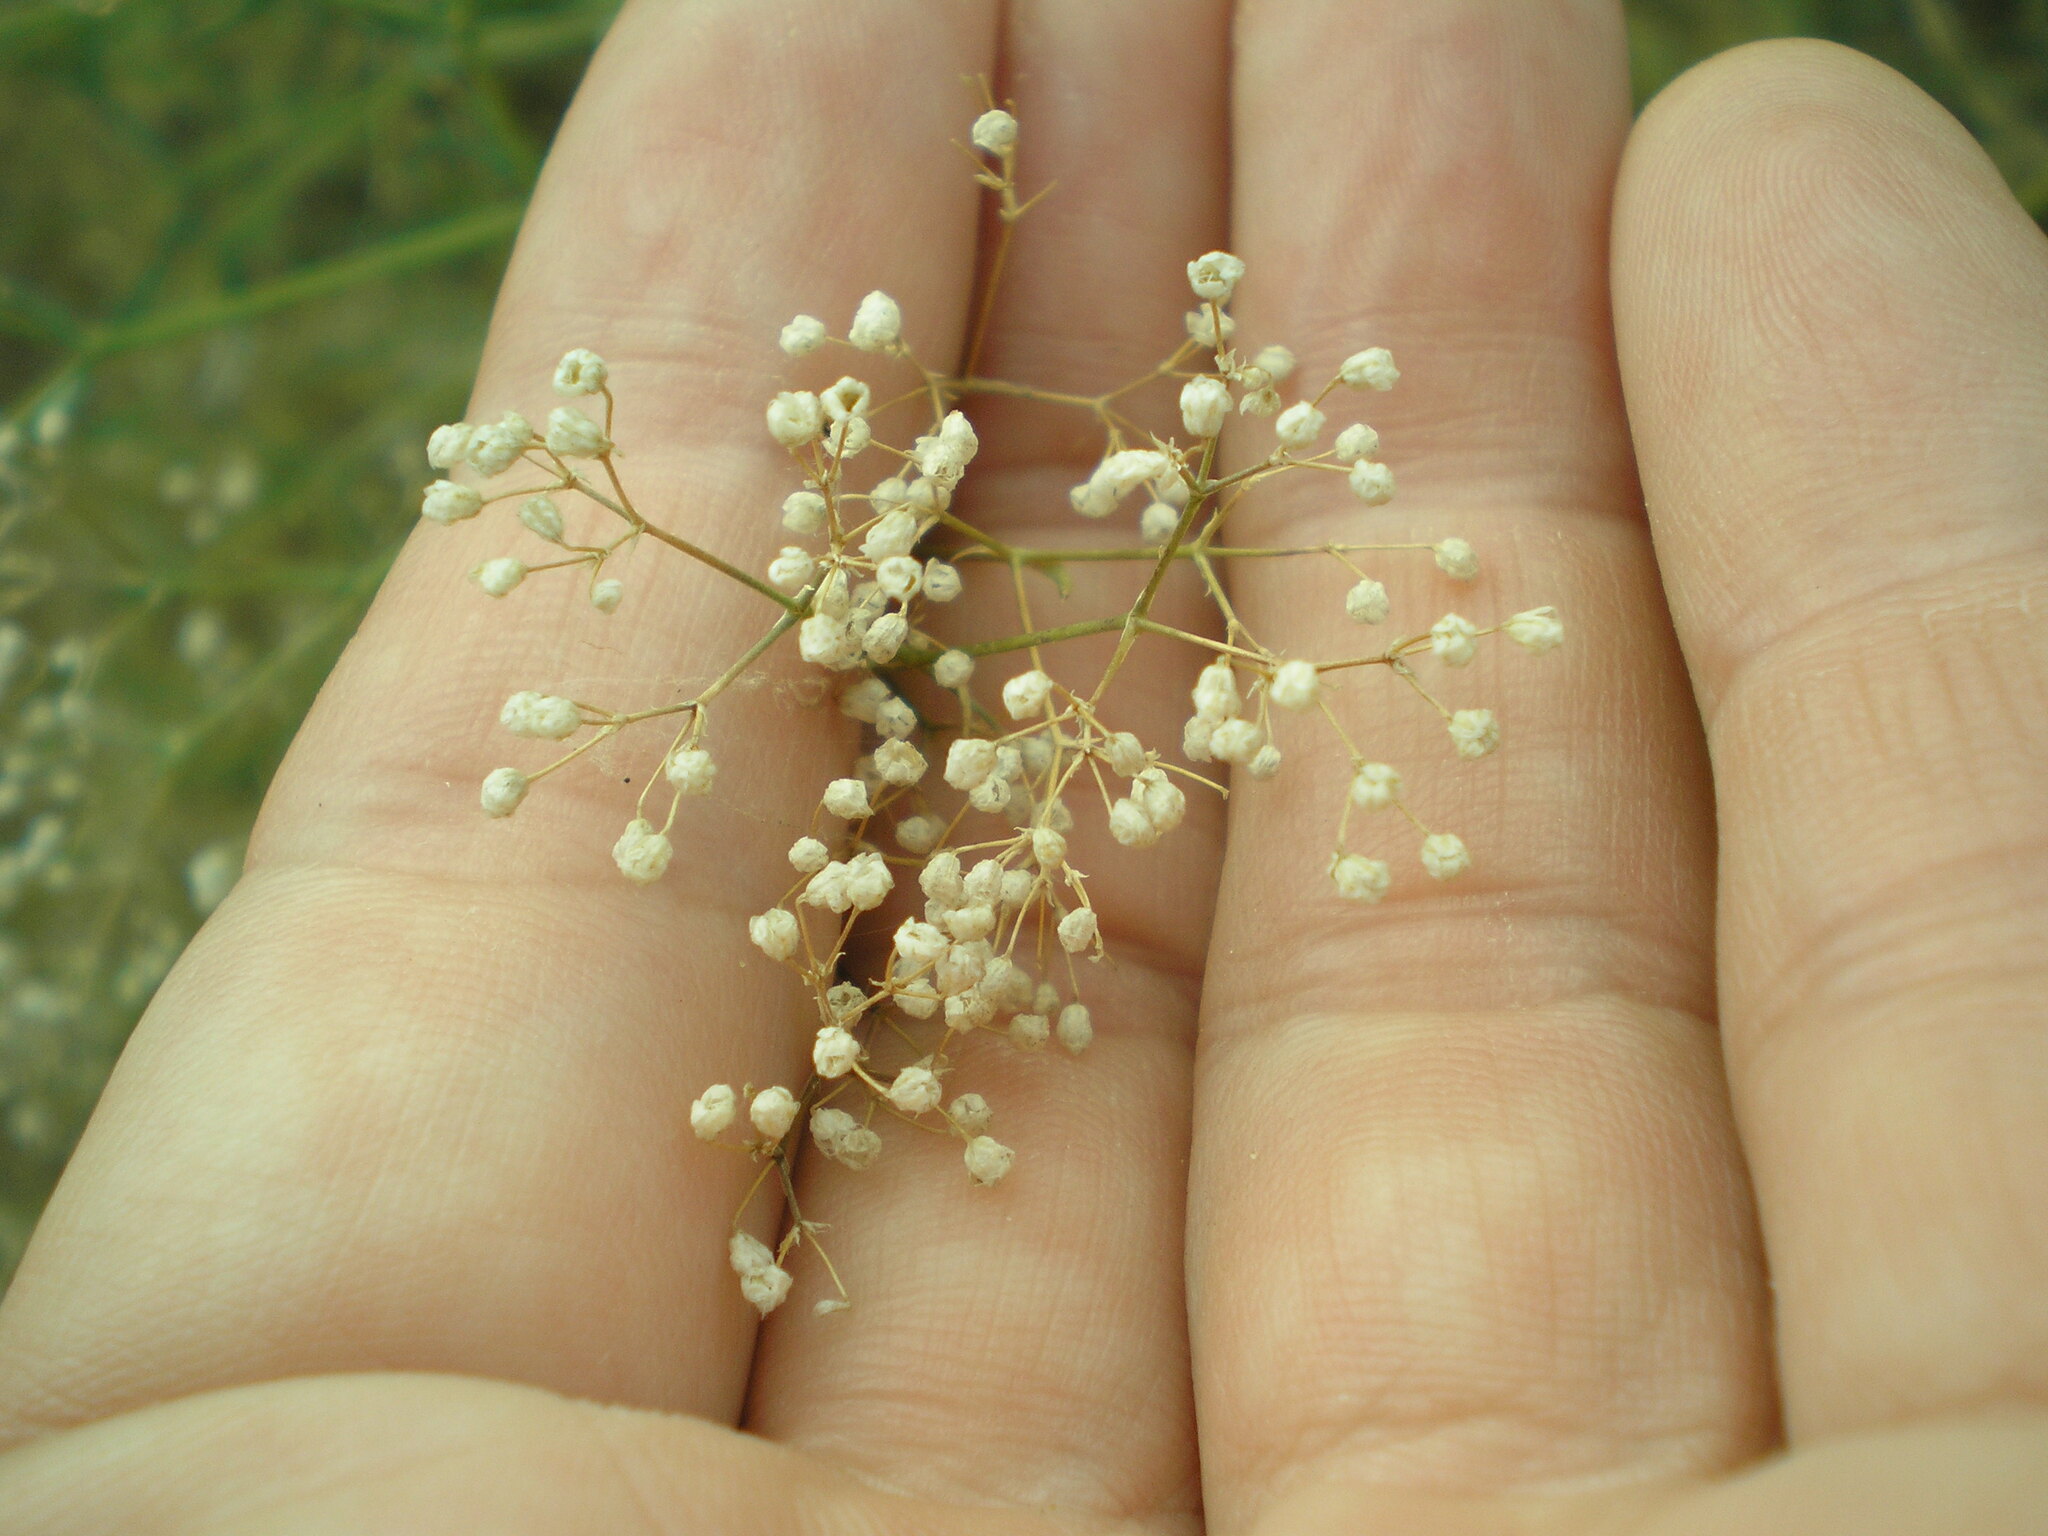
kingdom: Plantae
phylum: Tracheophyta
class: Magnoliopsida
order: Caryophyllales
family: Caryophyllaceae
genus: Gypsophila
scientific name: Gypsophila paniculata
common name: Baby's-breath
